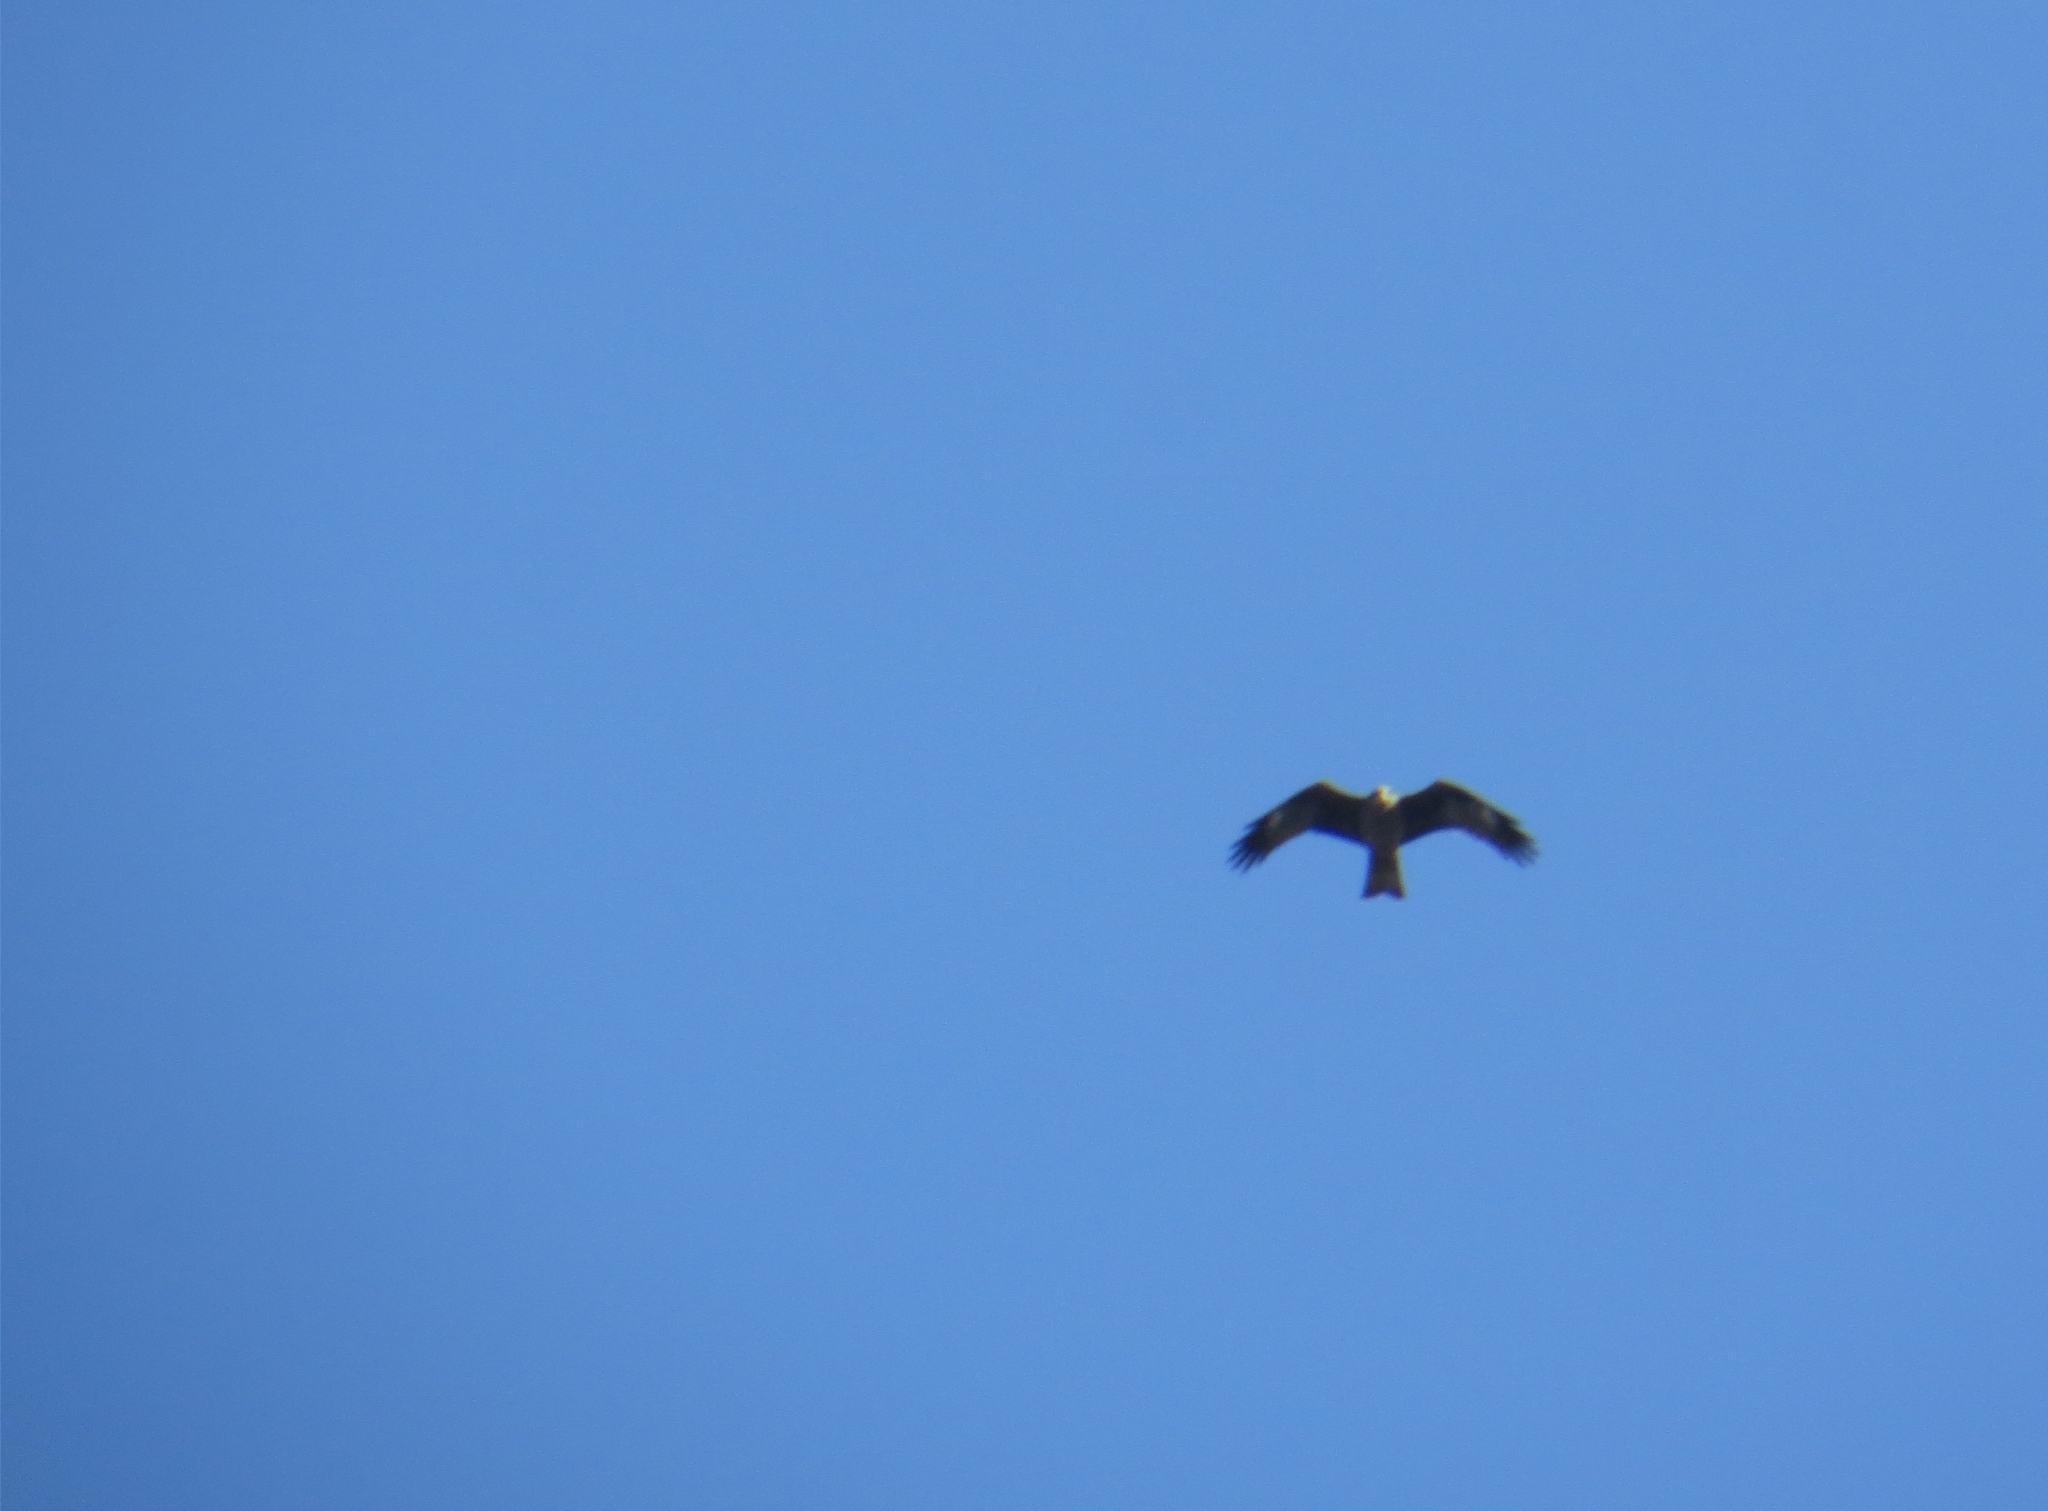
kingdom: Animalia
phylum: Chordata
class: Aves
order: Accipitriformes
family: Accipitridae
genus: Milvus
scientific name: Milvus migrans
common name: Black kite
